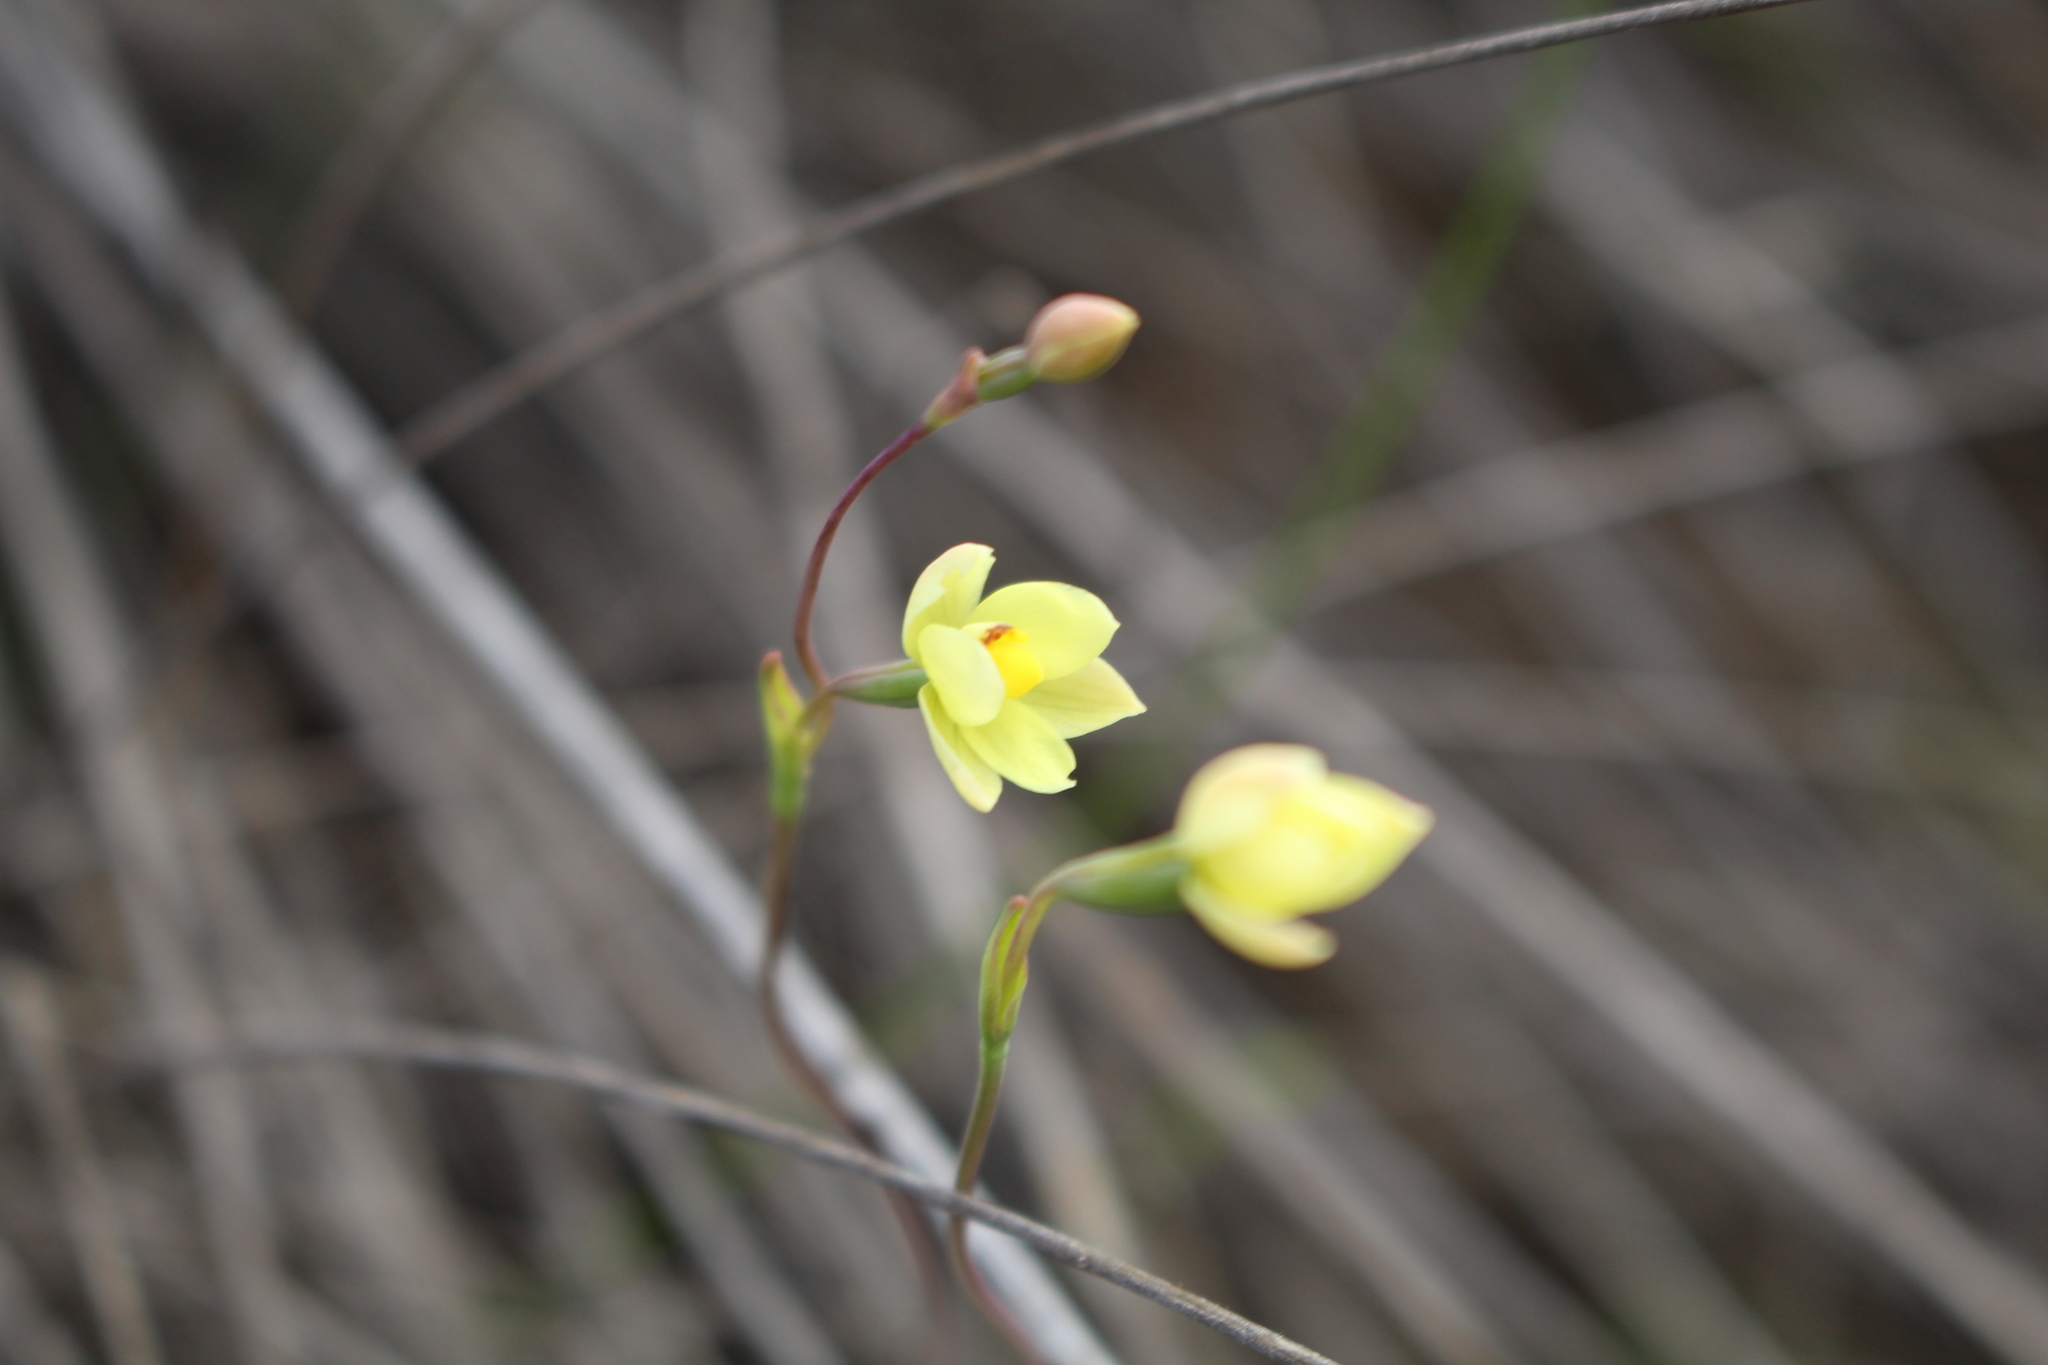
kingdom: Plantae
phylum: Tracheophyta
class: Liliopsida
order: Asparagales
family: Orchidaceae
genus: Thelymitra
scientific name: Thelymitra flexuosa
